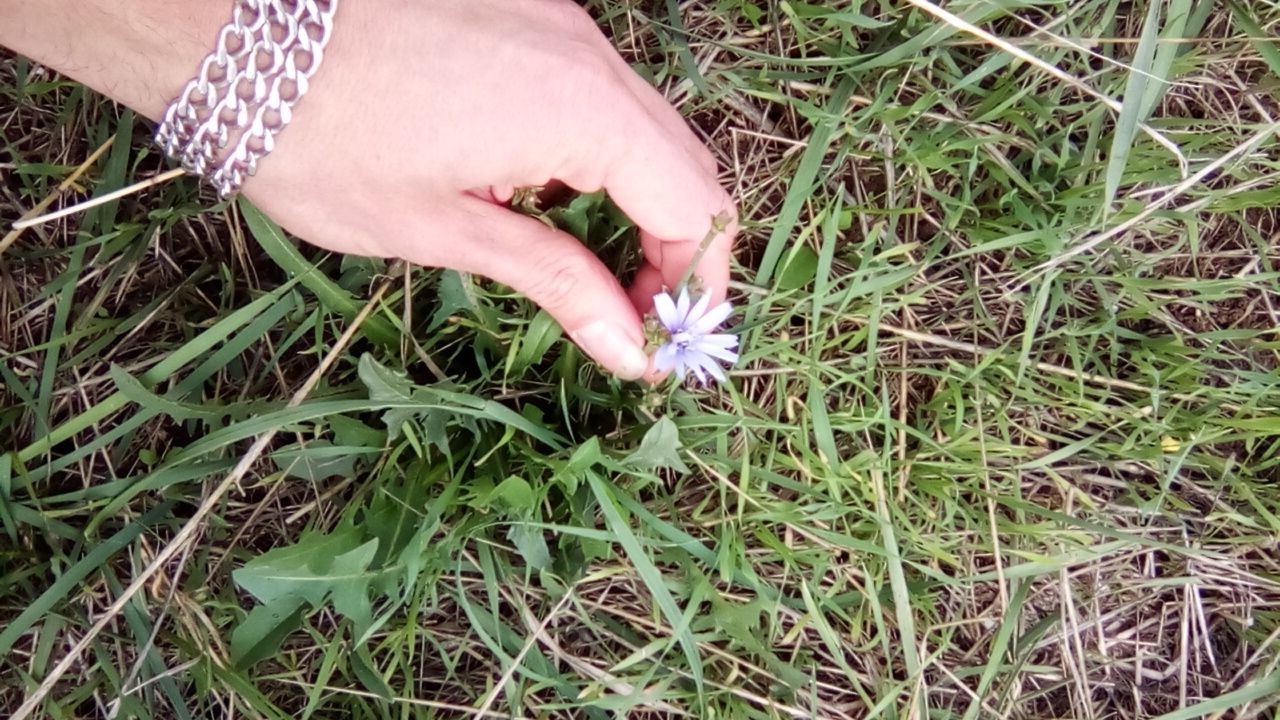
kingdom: Plantae
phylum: Tracheophyta
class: Magnoliopsida
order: Asterales
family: Asteraceae
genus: Cichorium
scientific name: Cichorium intybus
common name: Chicory
